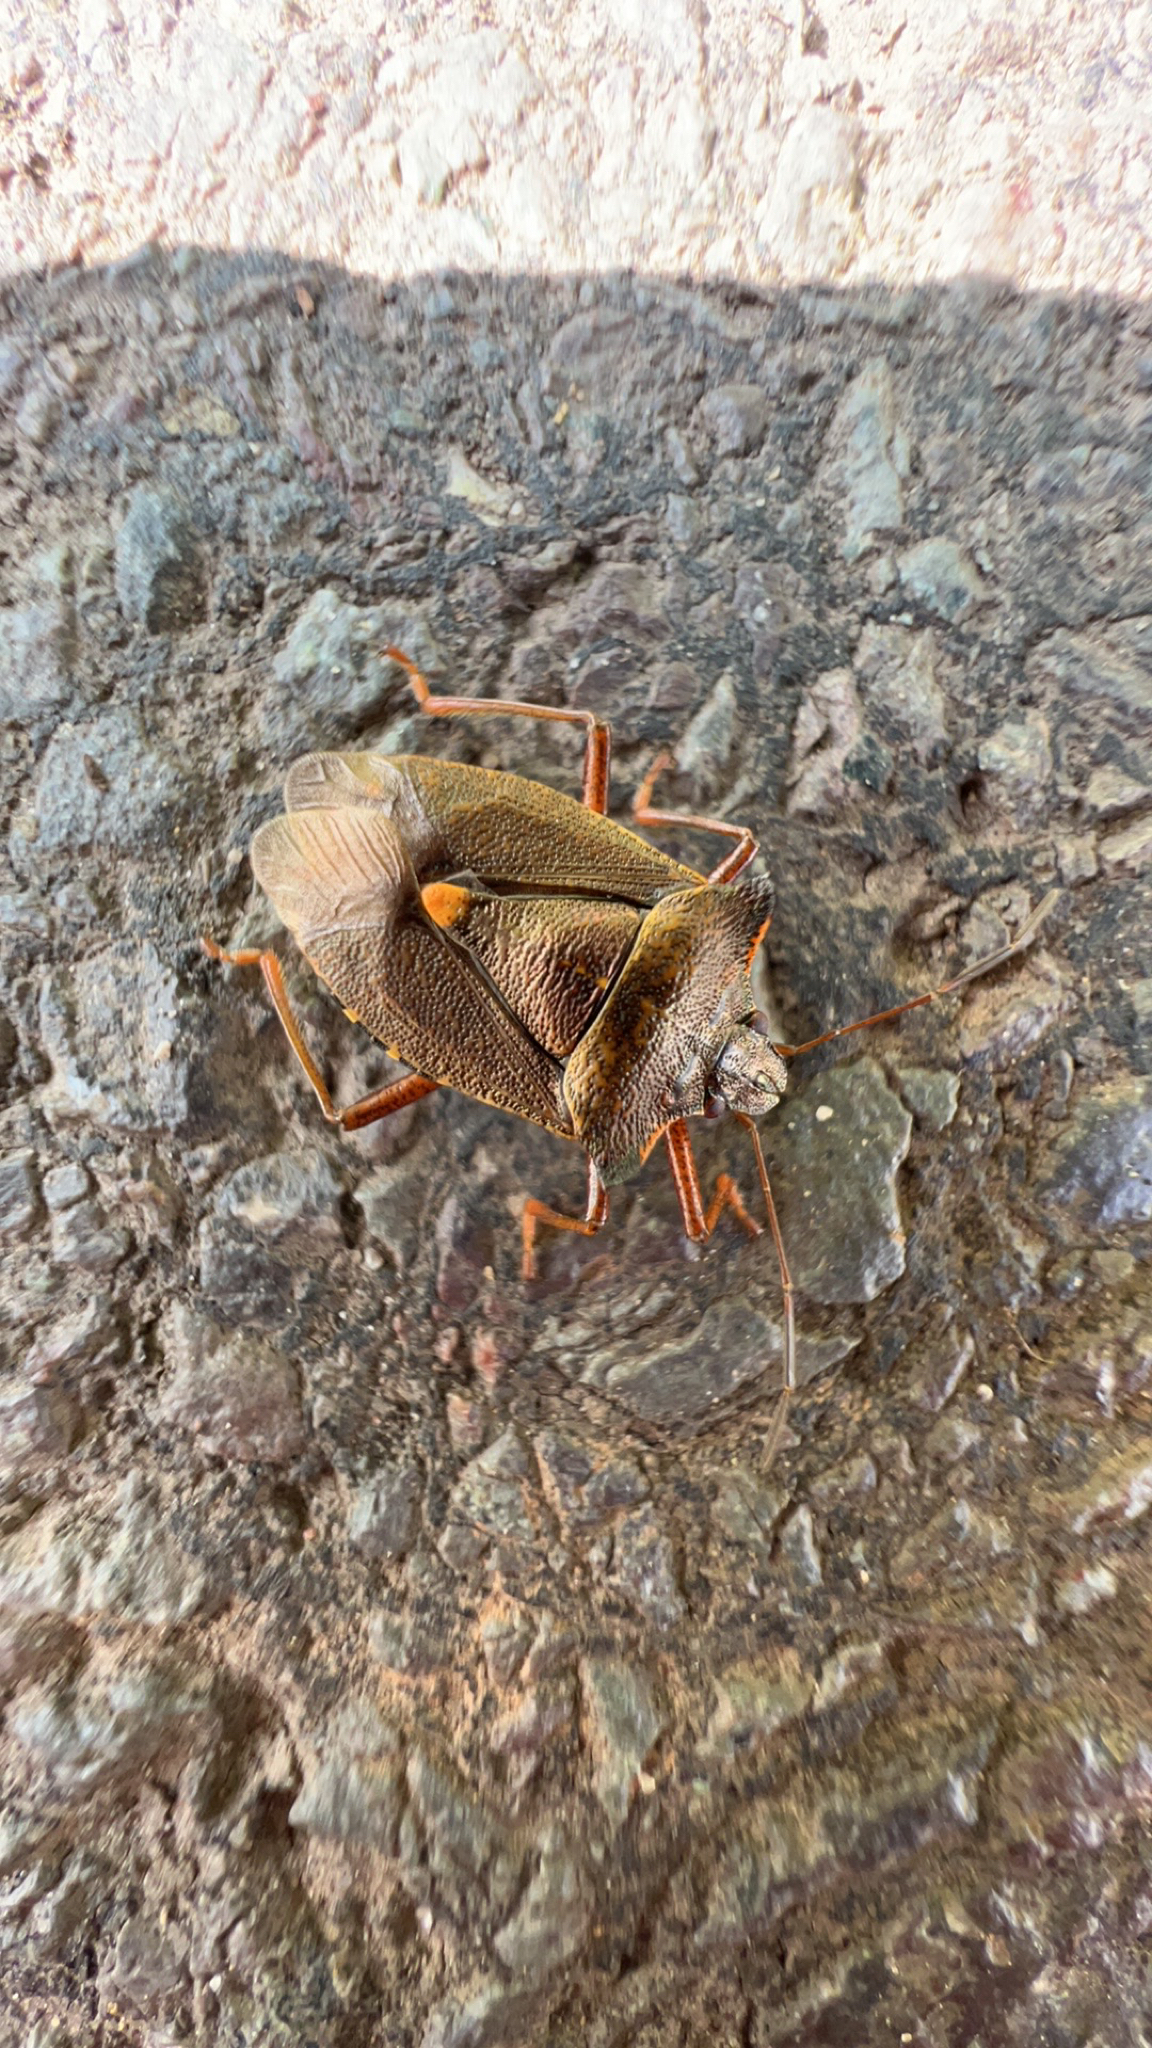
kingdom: Animalia
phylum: Arthropoda
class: Insecta
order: Hemiptera
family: Pentatomidae
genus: Pentatoma
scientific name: Pentatoma rufipes
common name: Forest bug
